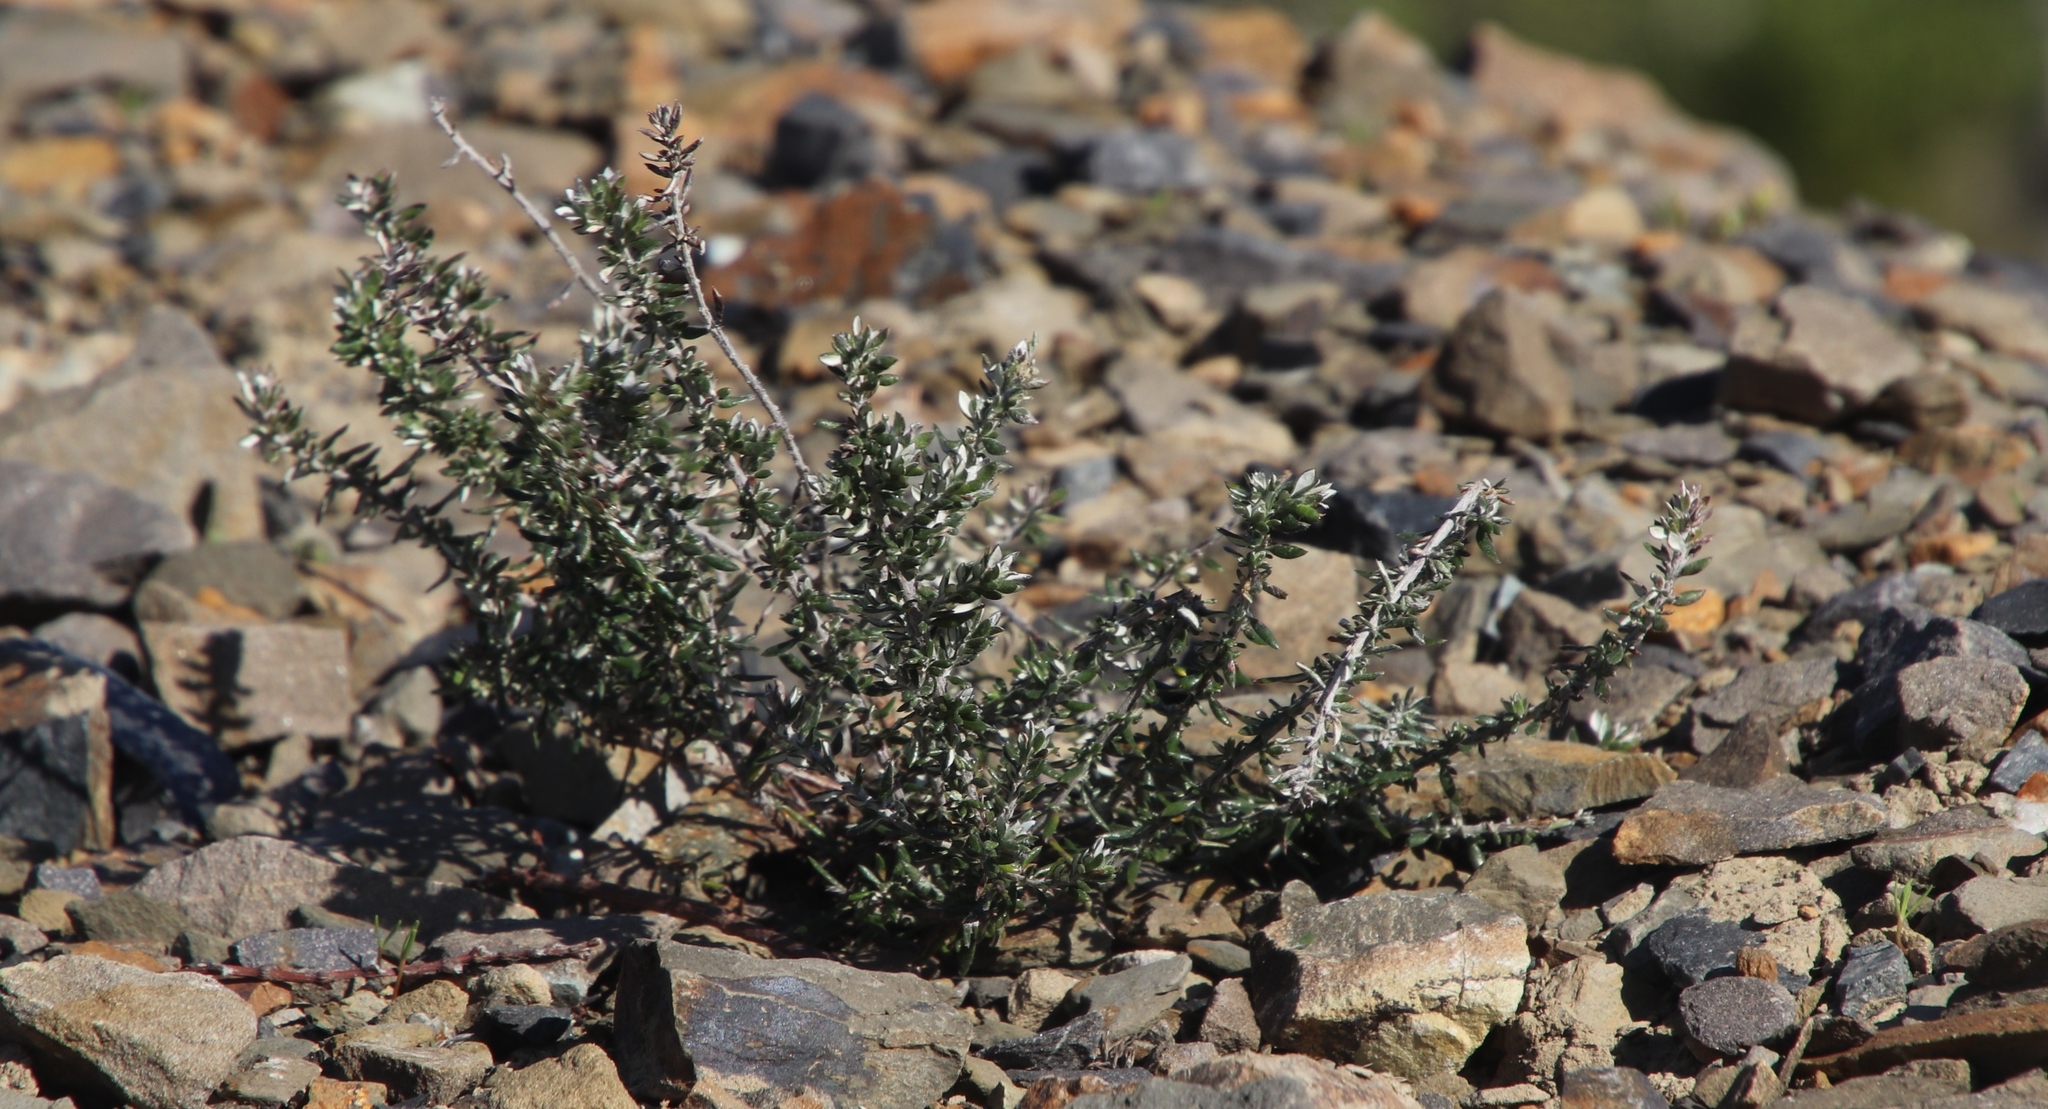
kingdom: Plantae
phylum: Tracheophyta
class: Magnoliopsida
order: Asterales
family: Asteraceae
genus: Metalasia
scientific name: Metalasia densa
